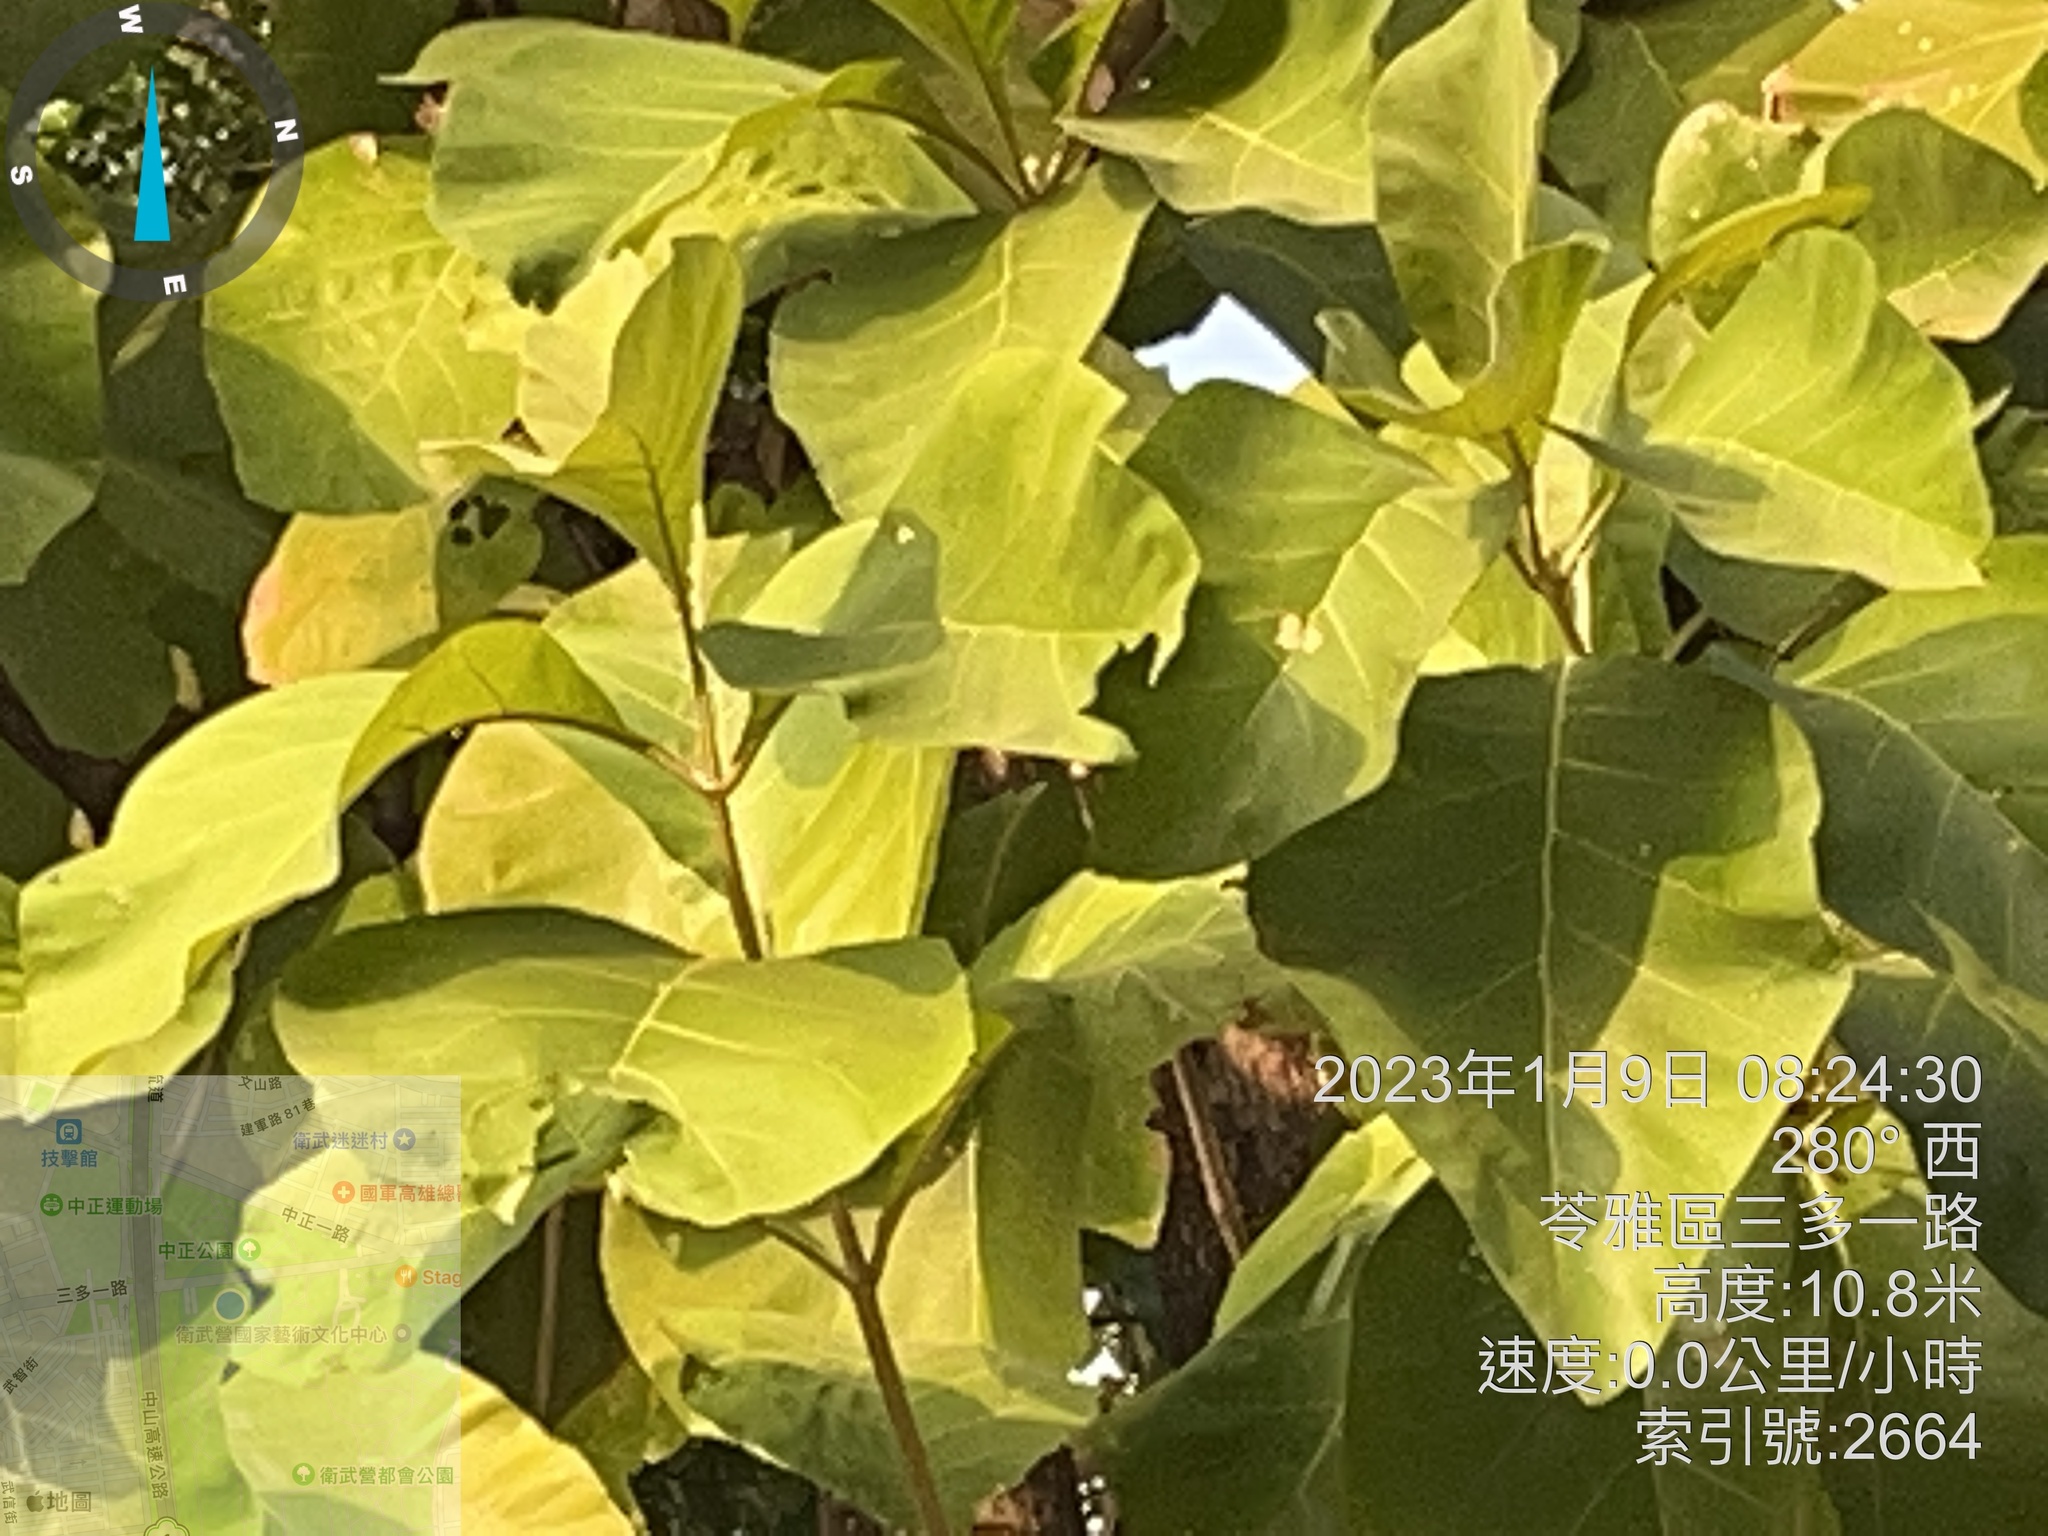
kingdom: Plantae
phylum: Tracheophyta
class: Magnoliopsida
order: Lamiales
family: Lamiaceae
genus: Tectona
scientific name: Tectona grandis
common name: Teak
